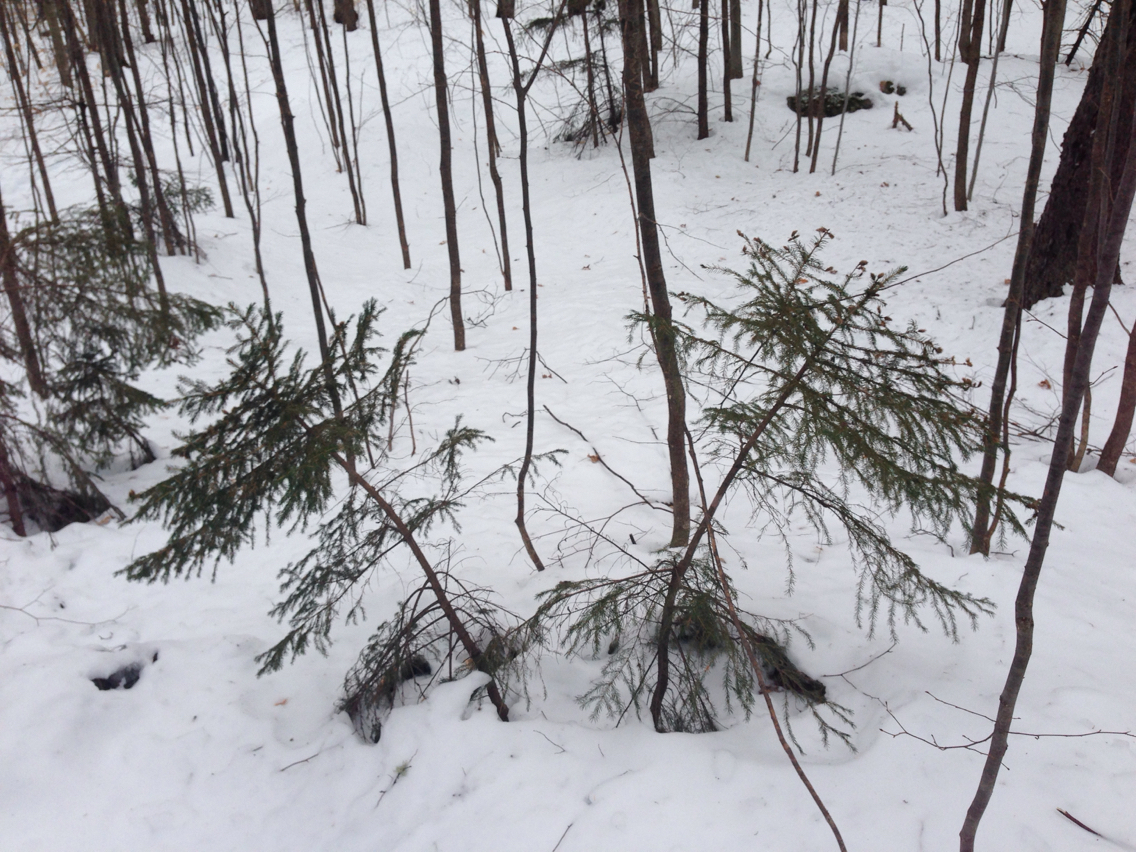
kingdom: Plantae
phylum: Tracheophyta
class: Pinopsida
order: Pinales
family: Pinaceae
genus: Picea
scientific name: Picea rubens
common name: Red spruce
